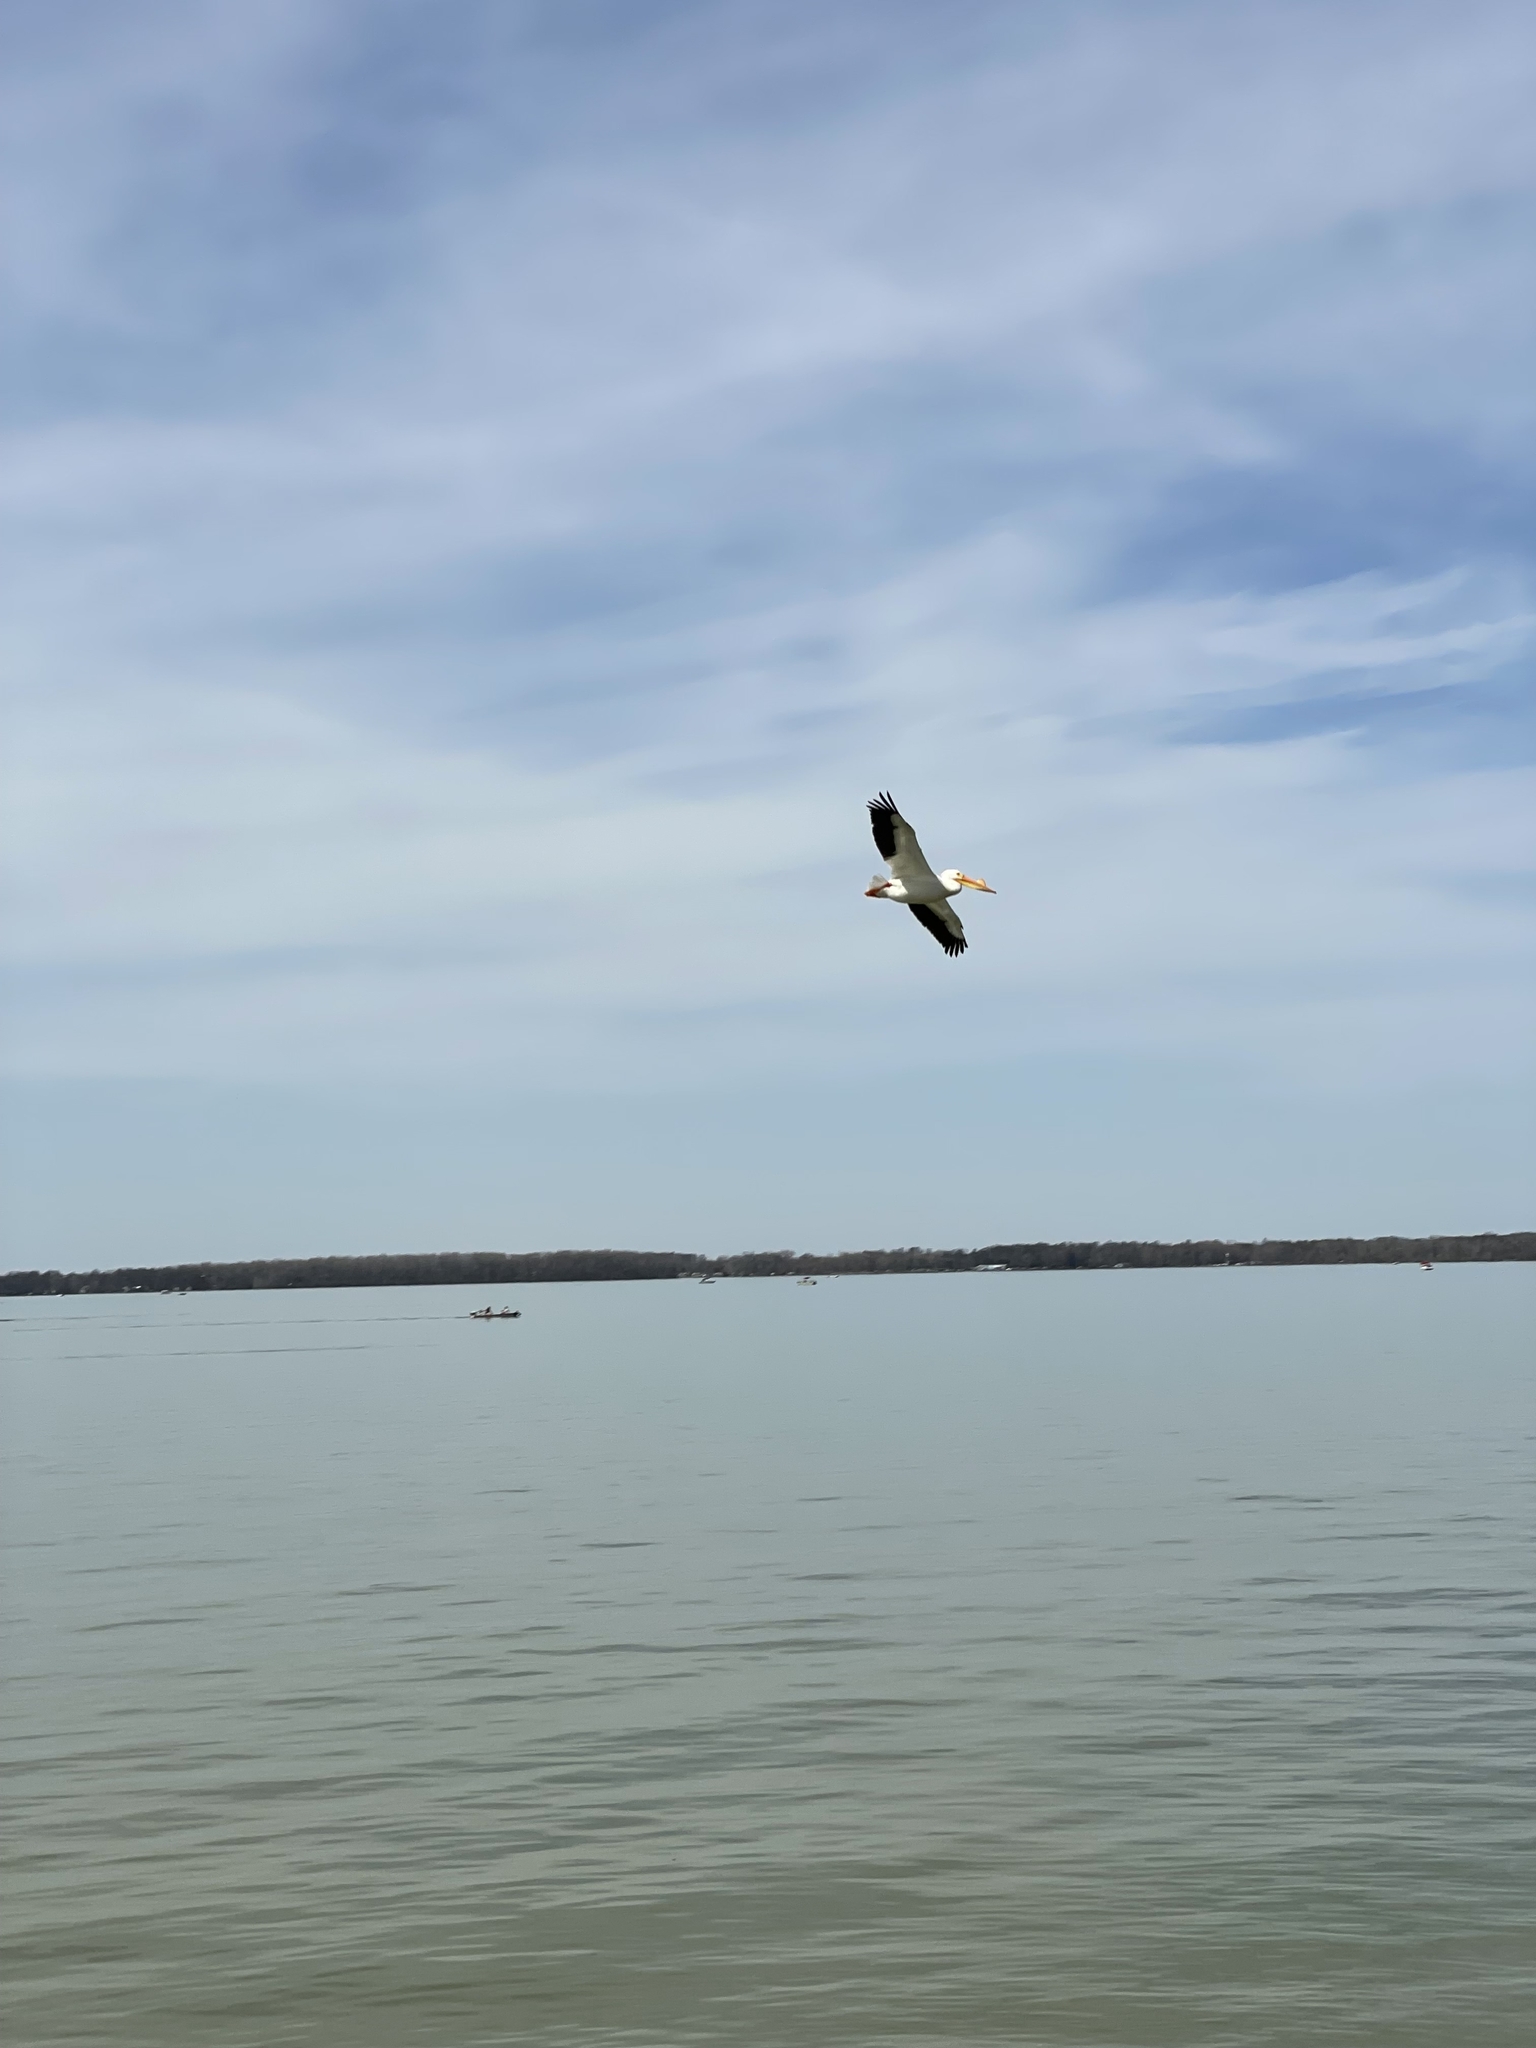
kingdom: Animalia
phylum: Chordata
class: Aves
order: Pelecaniformes
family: Pelecanidae
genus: Pelecanus
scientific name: Pelecanus erythrorhynchos
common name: American white pelican
